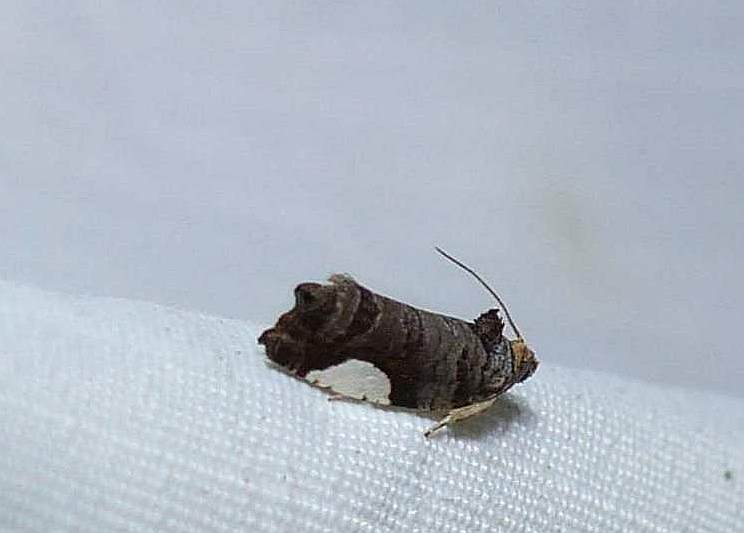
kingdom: Animalia
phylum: Arthropoda
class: Insecta
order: Lepidoptera
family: Tortricidae
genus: Hedya
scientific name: Hedya chionosema
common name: White-spotted hedya moth
